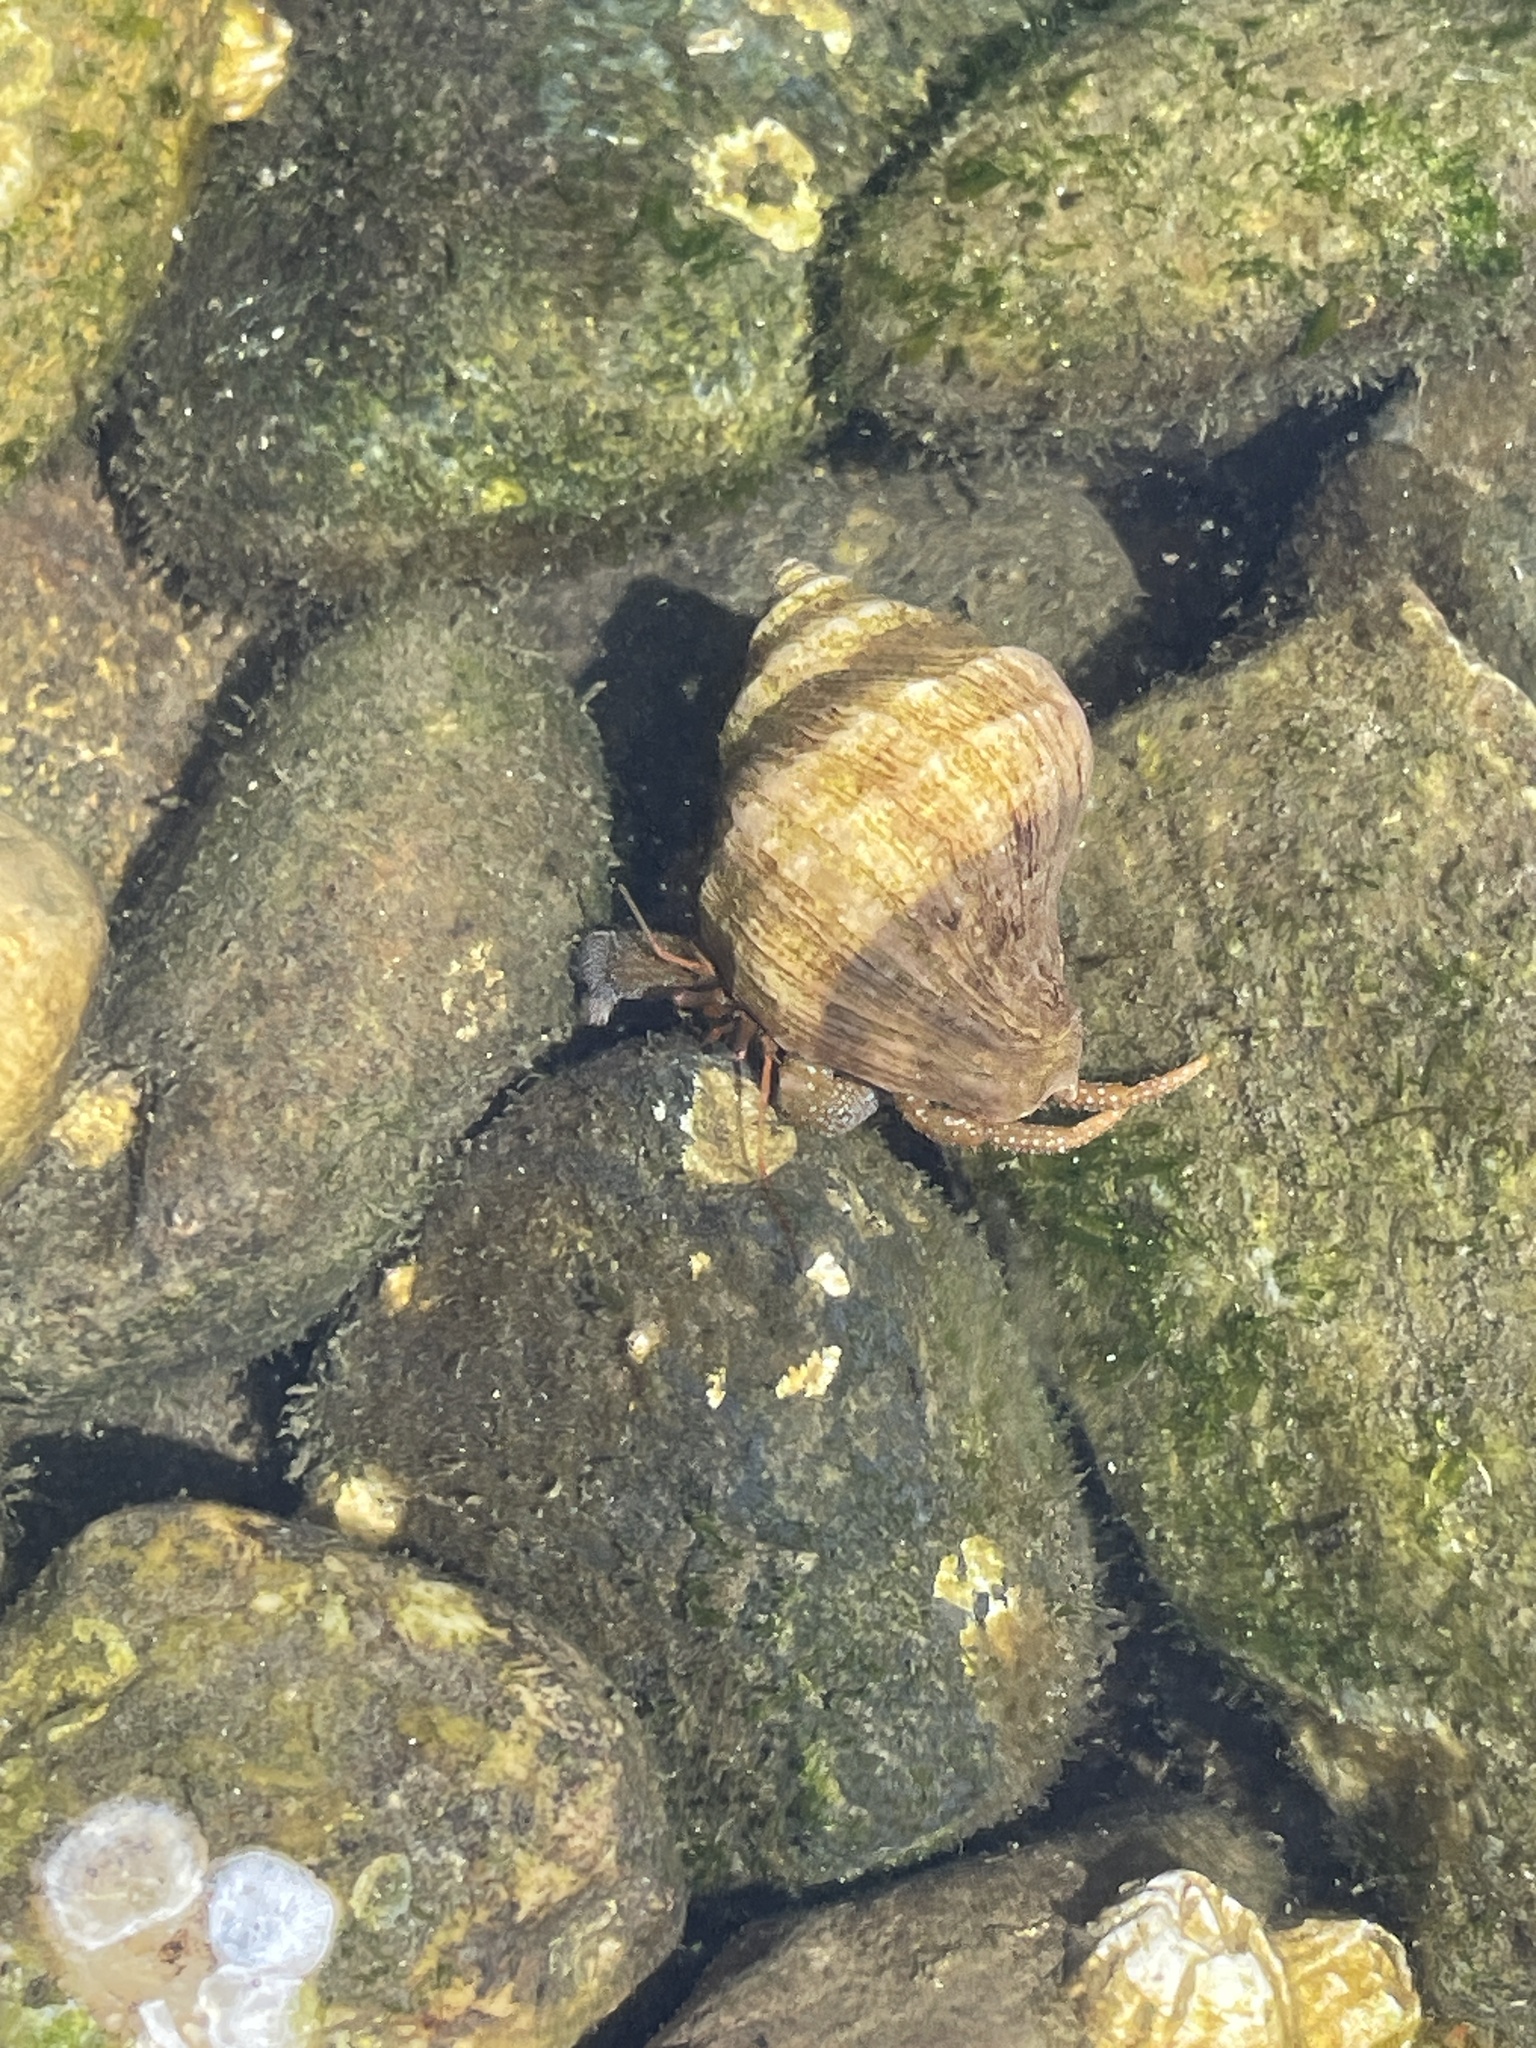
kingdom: Animalia
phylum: Arthropoda
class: Malacostraca
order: Decapoda
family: Paguridae
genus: Pagurus
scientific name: Pagurus granosimanus
